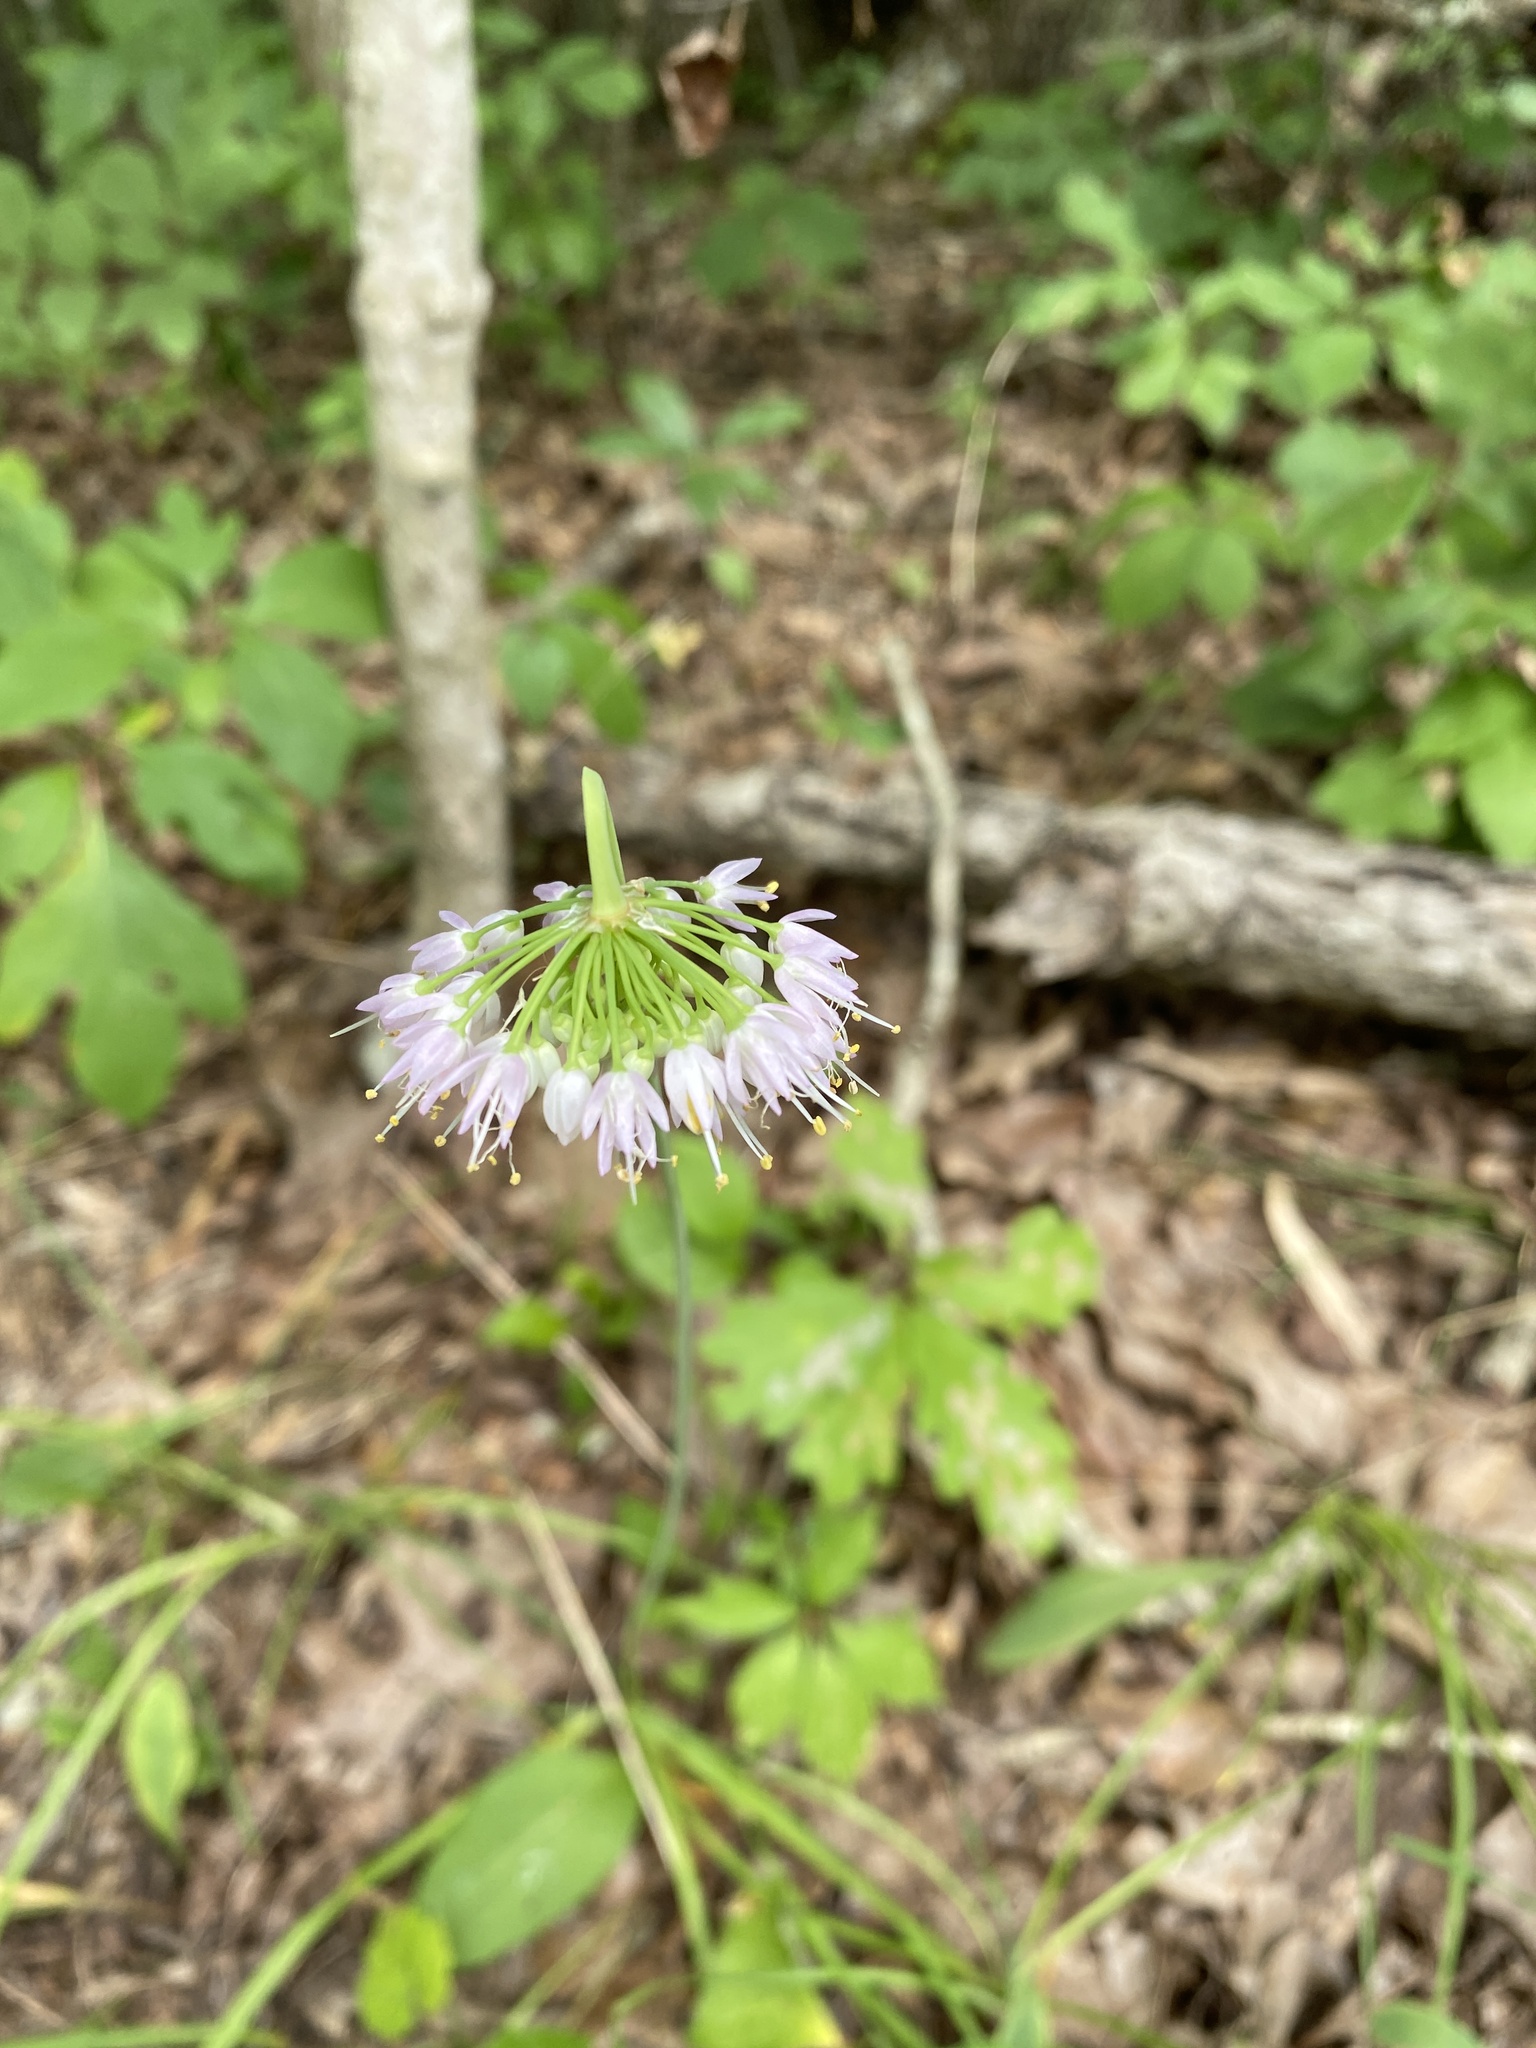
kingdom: Plantae
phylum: Tracheophyta
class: Liliopsida
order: Asparagales
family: Amaryllidaceae
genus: Allium
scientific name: Allium cernuum
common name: Nodding onion
